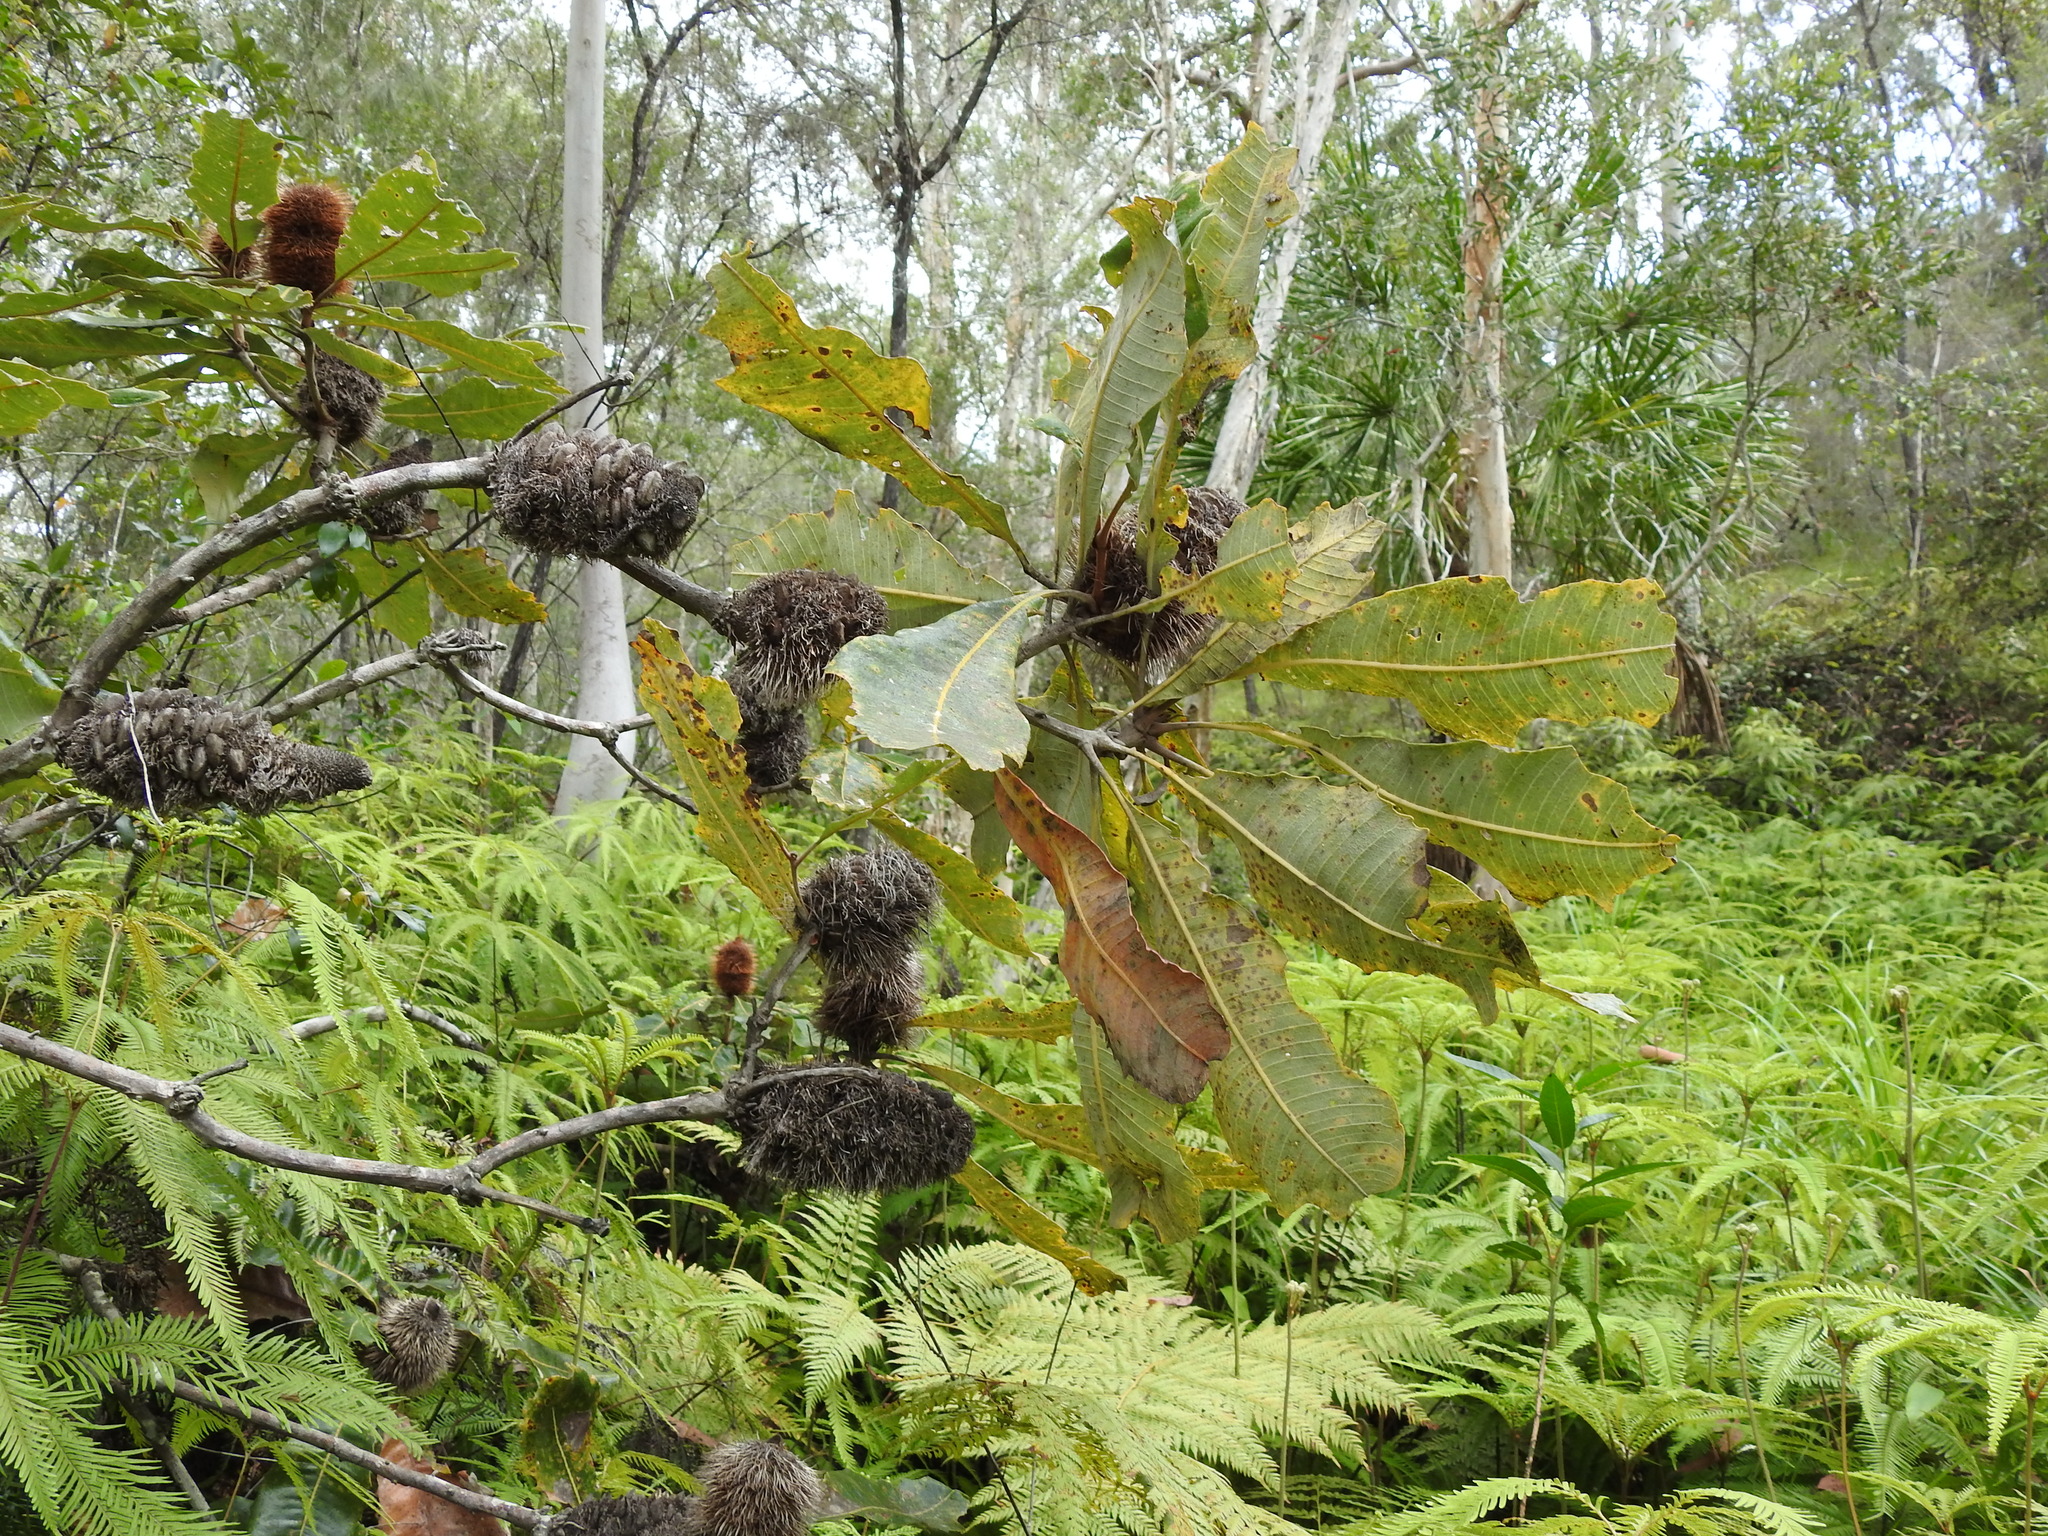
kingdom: Plantae
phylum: Tracheophyta
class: Magnoliopsida
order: Proteales
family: Proteaceae
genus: Banksia
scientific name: Banksia robur
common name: Broadleaf banksia
